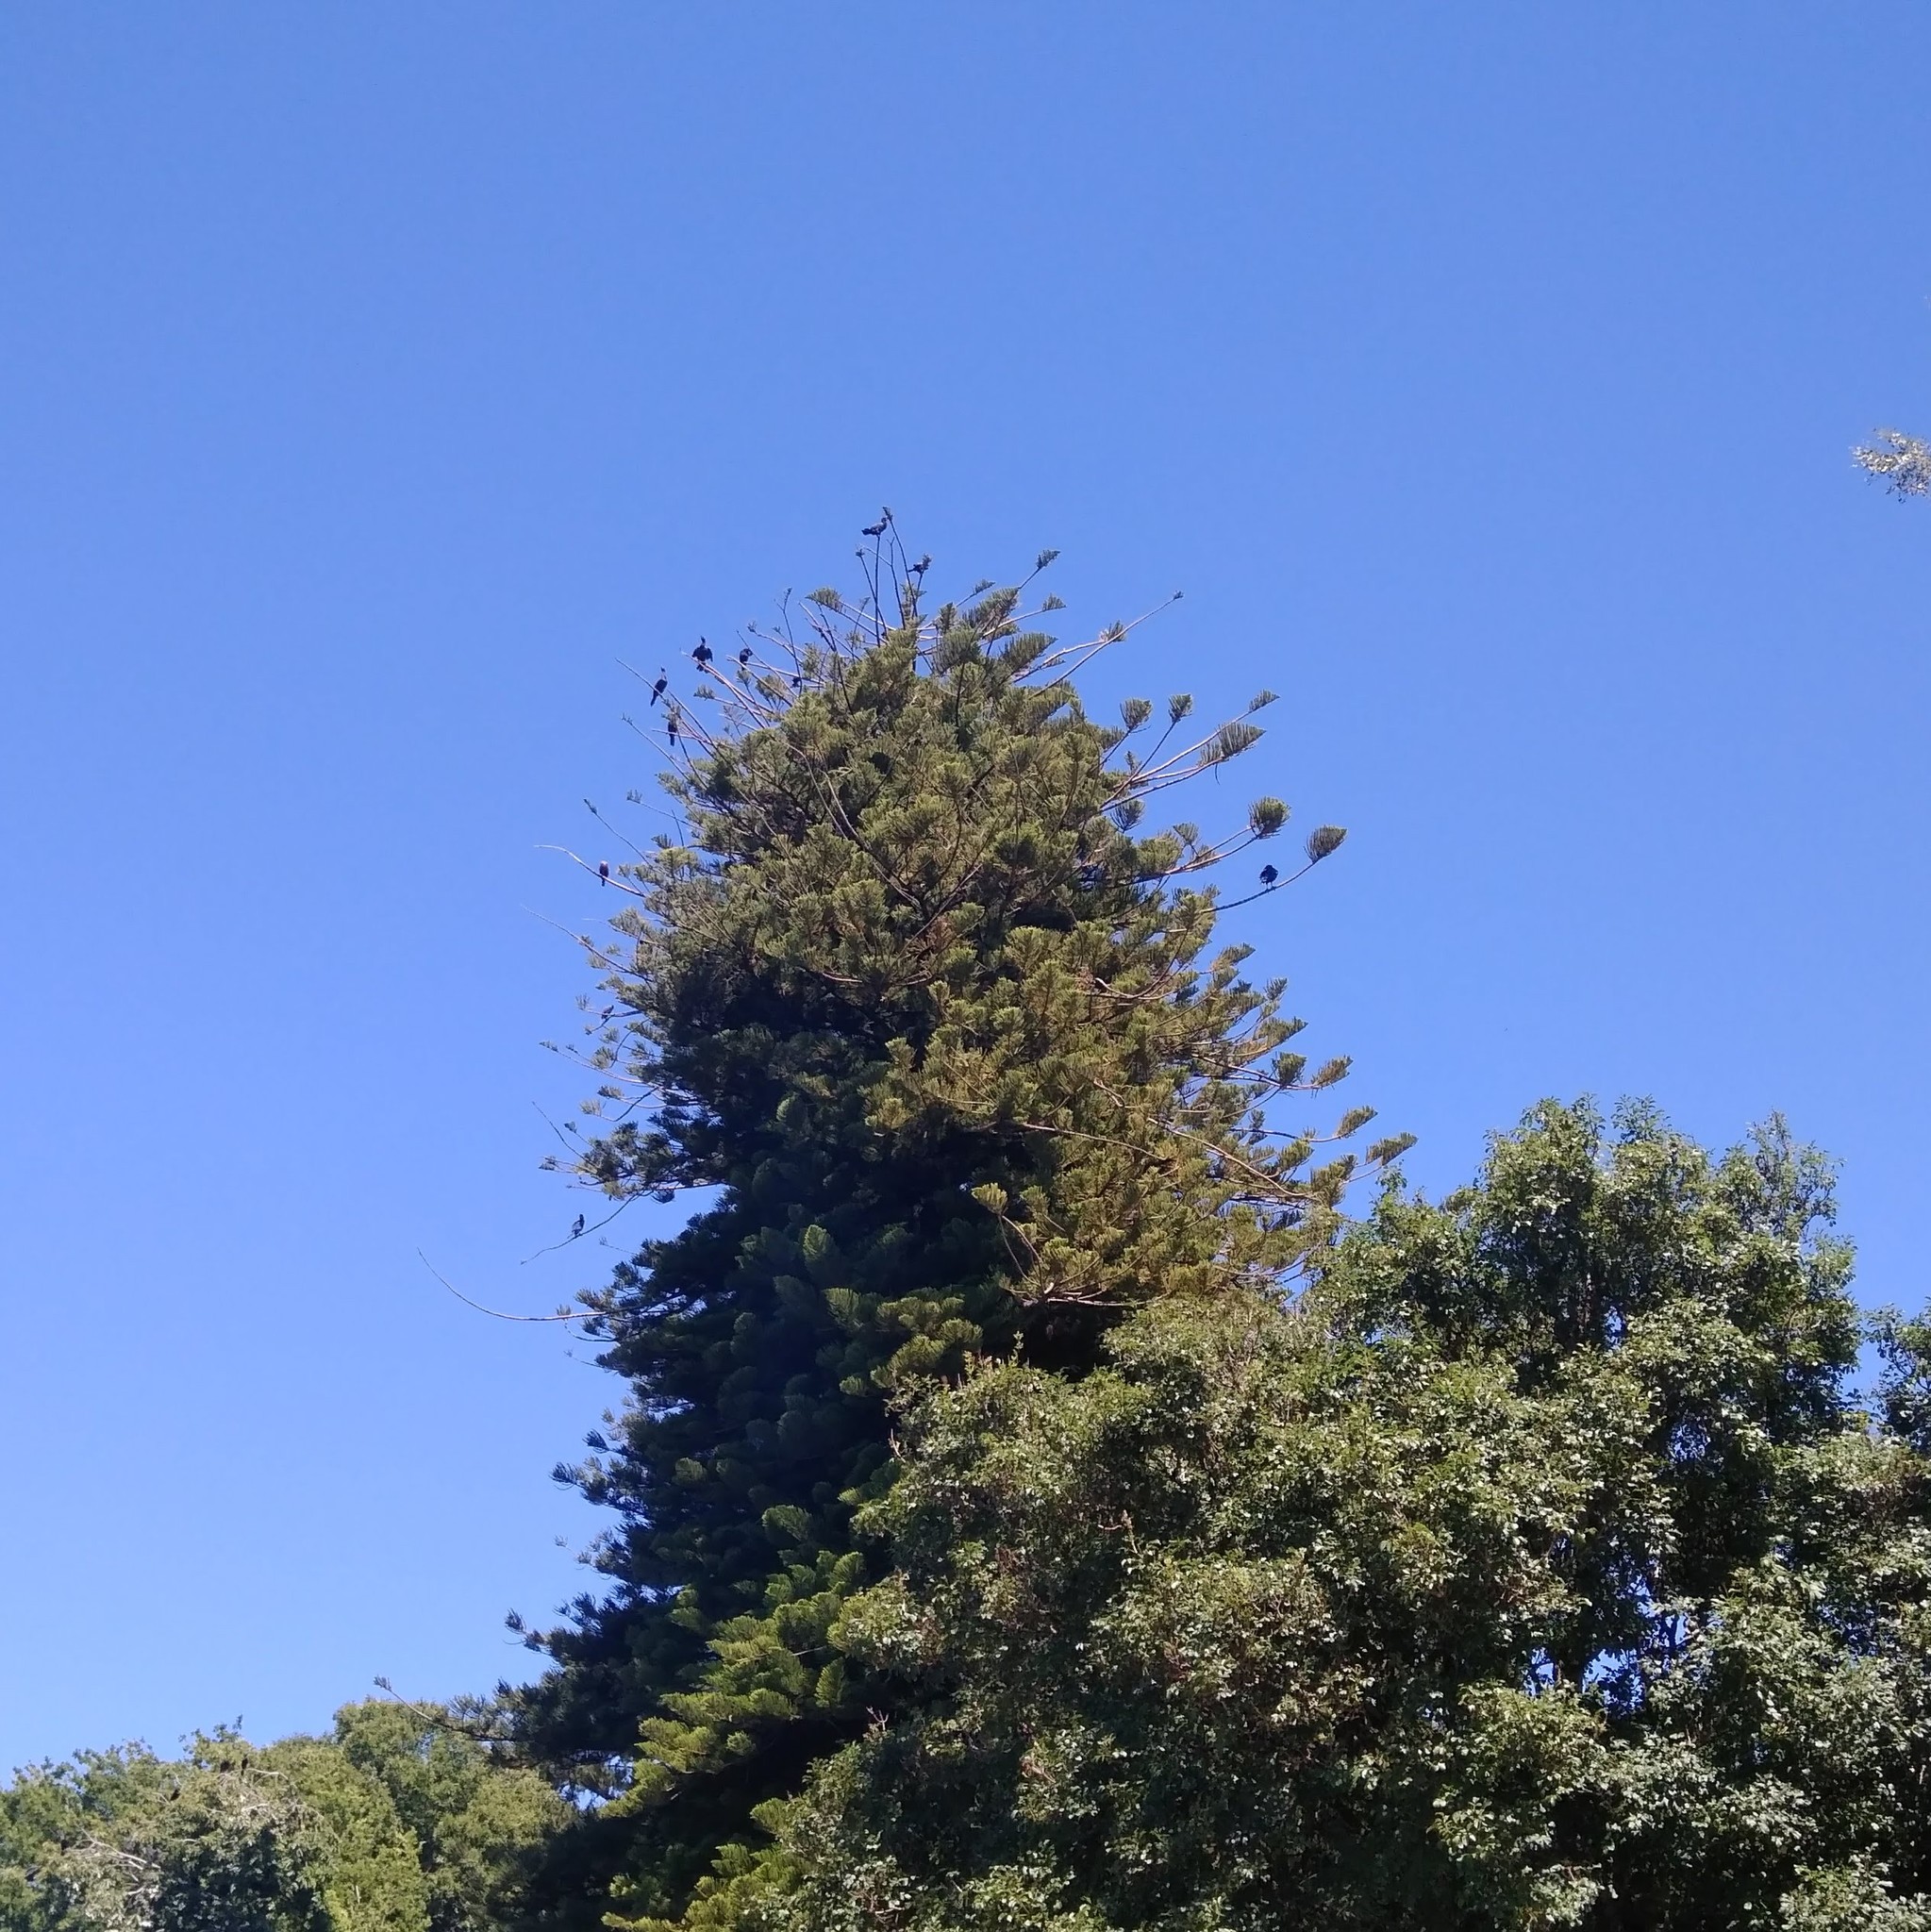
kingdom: Animalia
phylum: Chordata
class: Aves
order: Suliformes
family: Phalacrocoracidae
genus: Phalacrocorax
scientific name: Phalacrocorax brasilianus
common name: Neotropic cormorant
